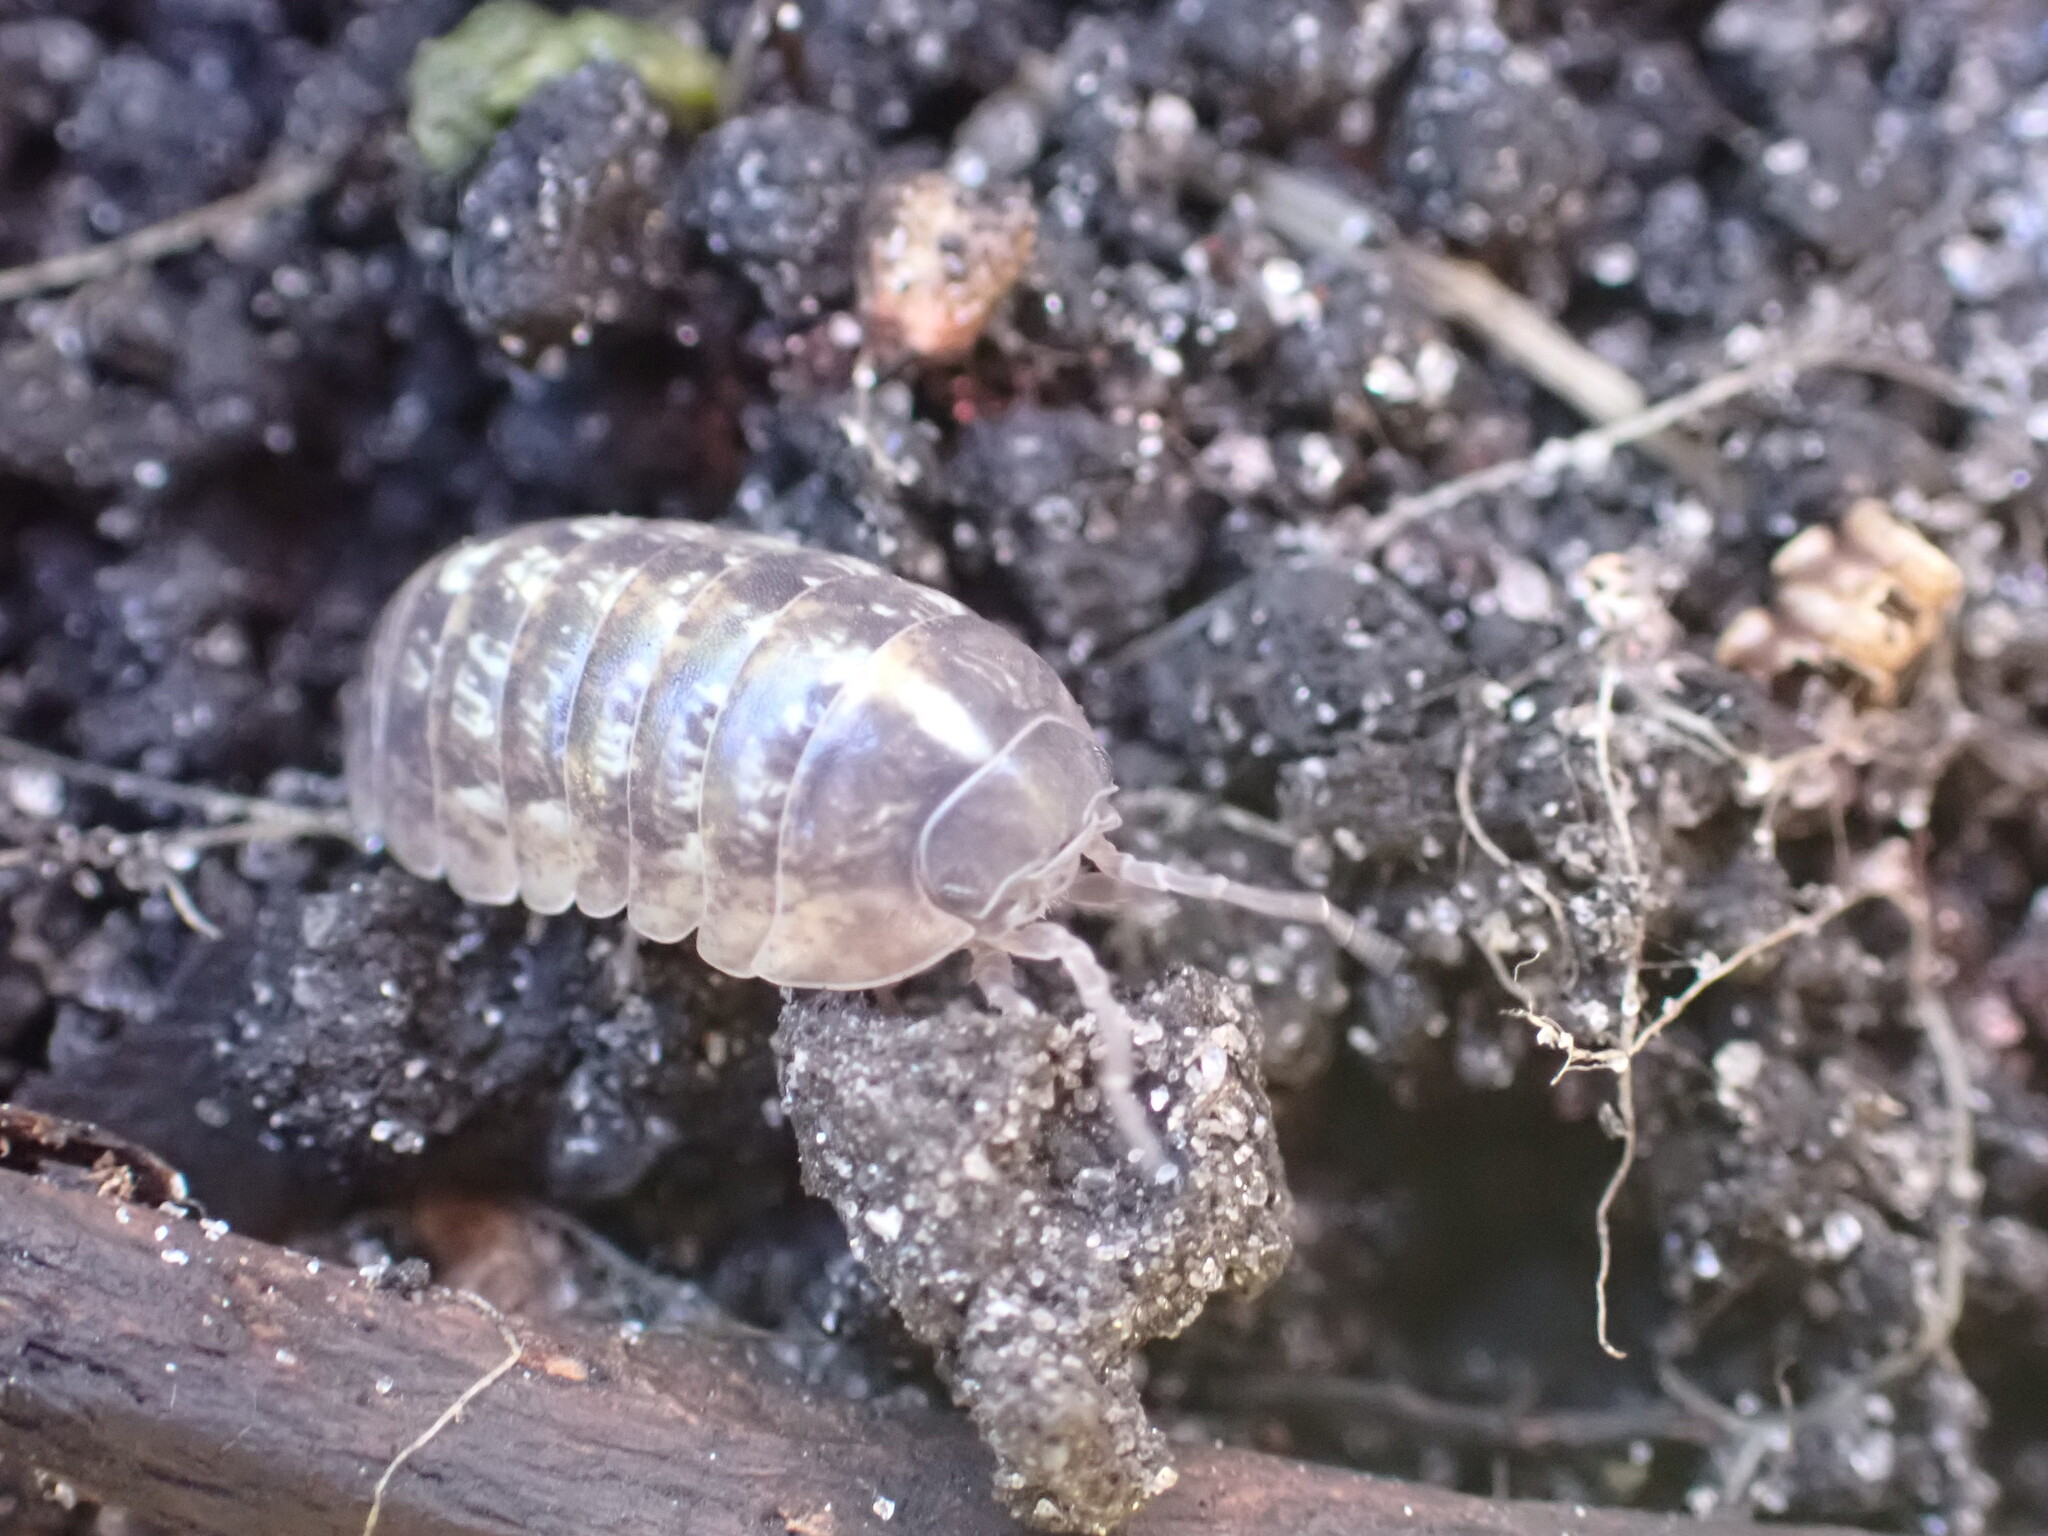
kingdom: Animalia
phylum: Arthropoda
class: Malacostraca
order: Isopoda
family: Armadillidiidae
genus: Armadillidium
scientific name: Armadillidium vulgare
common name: Common pill woodlouse
